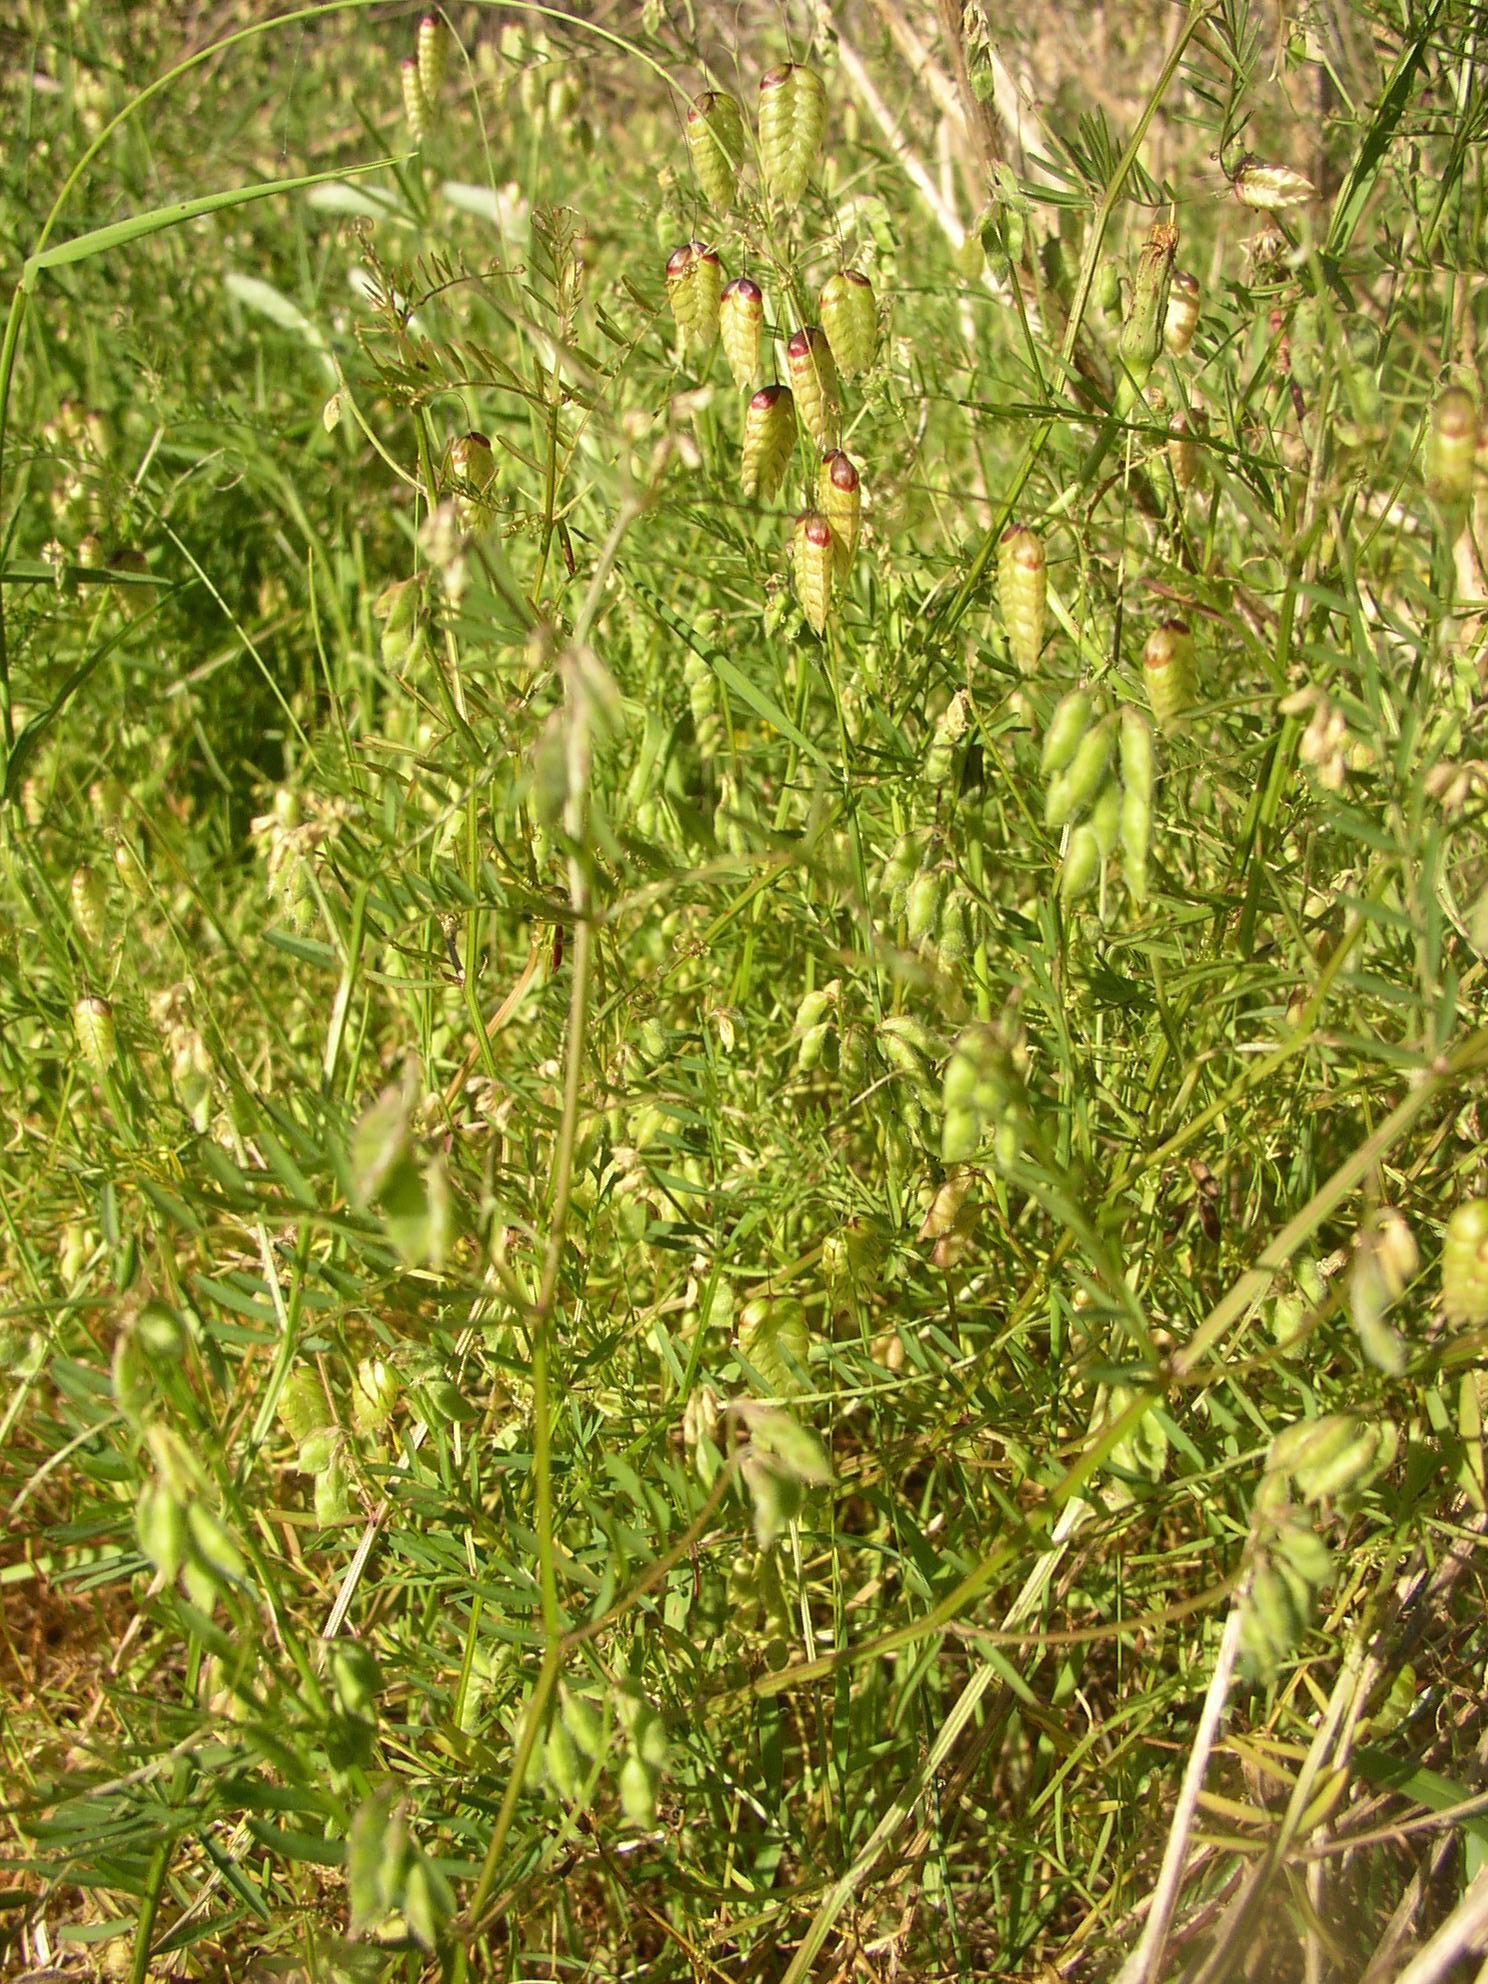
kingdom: Plantae
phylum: Tracheophyta
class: Magnoliopsida
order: Fabales
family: Fabaceae
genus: Vicia
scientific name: Vicia hirsuta
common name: Tiny vetch
